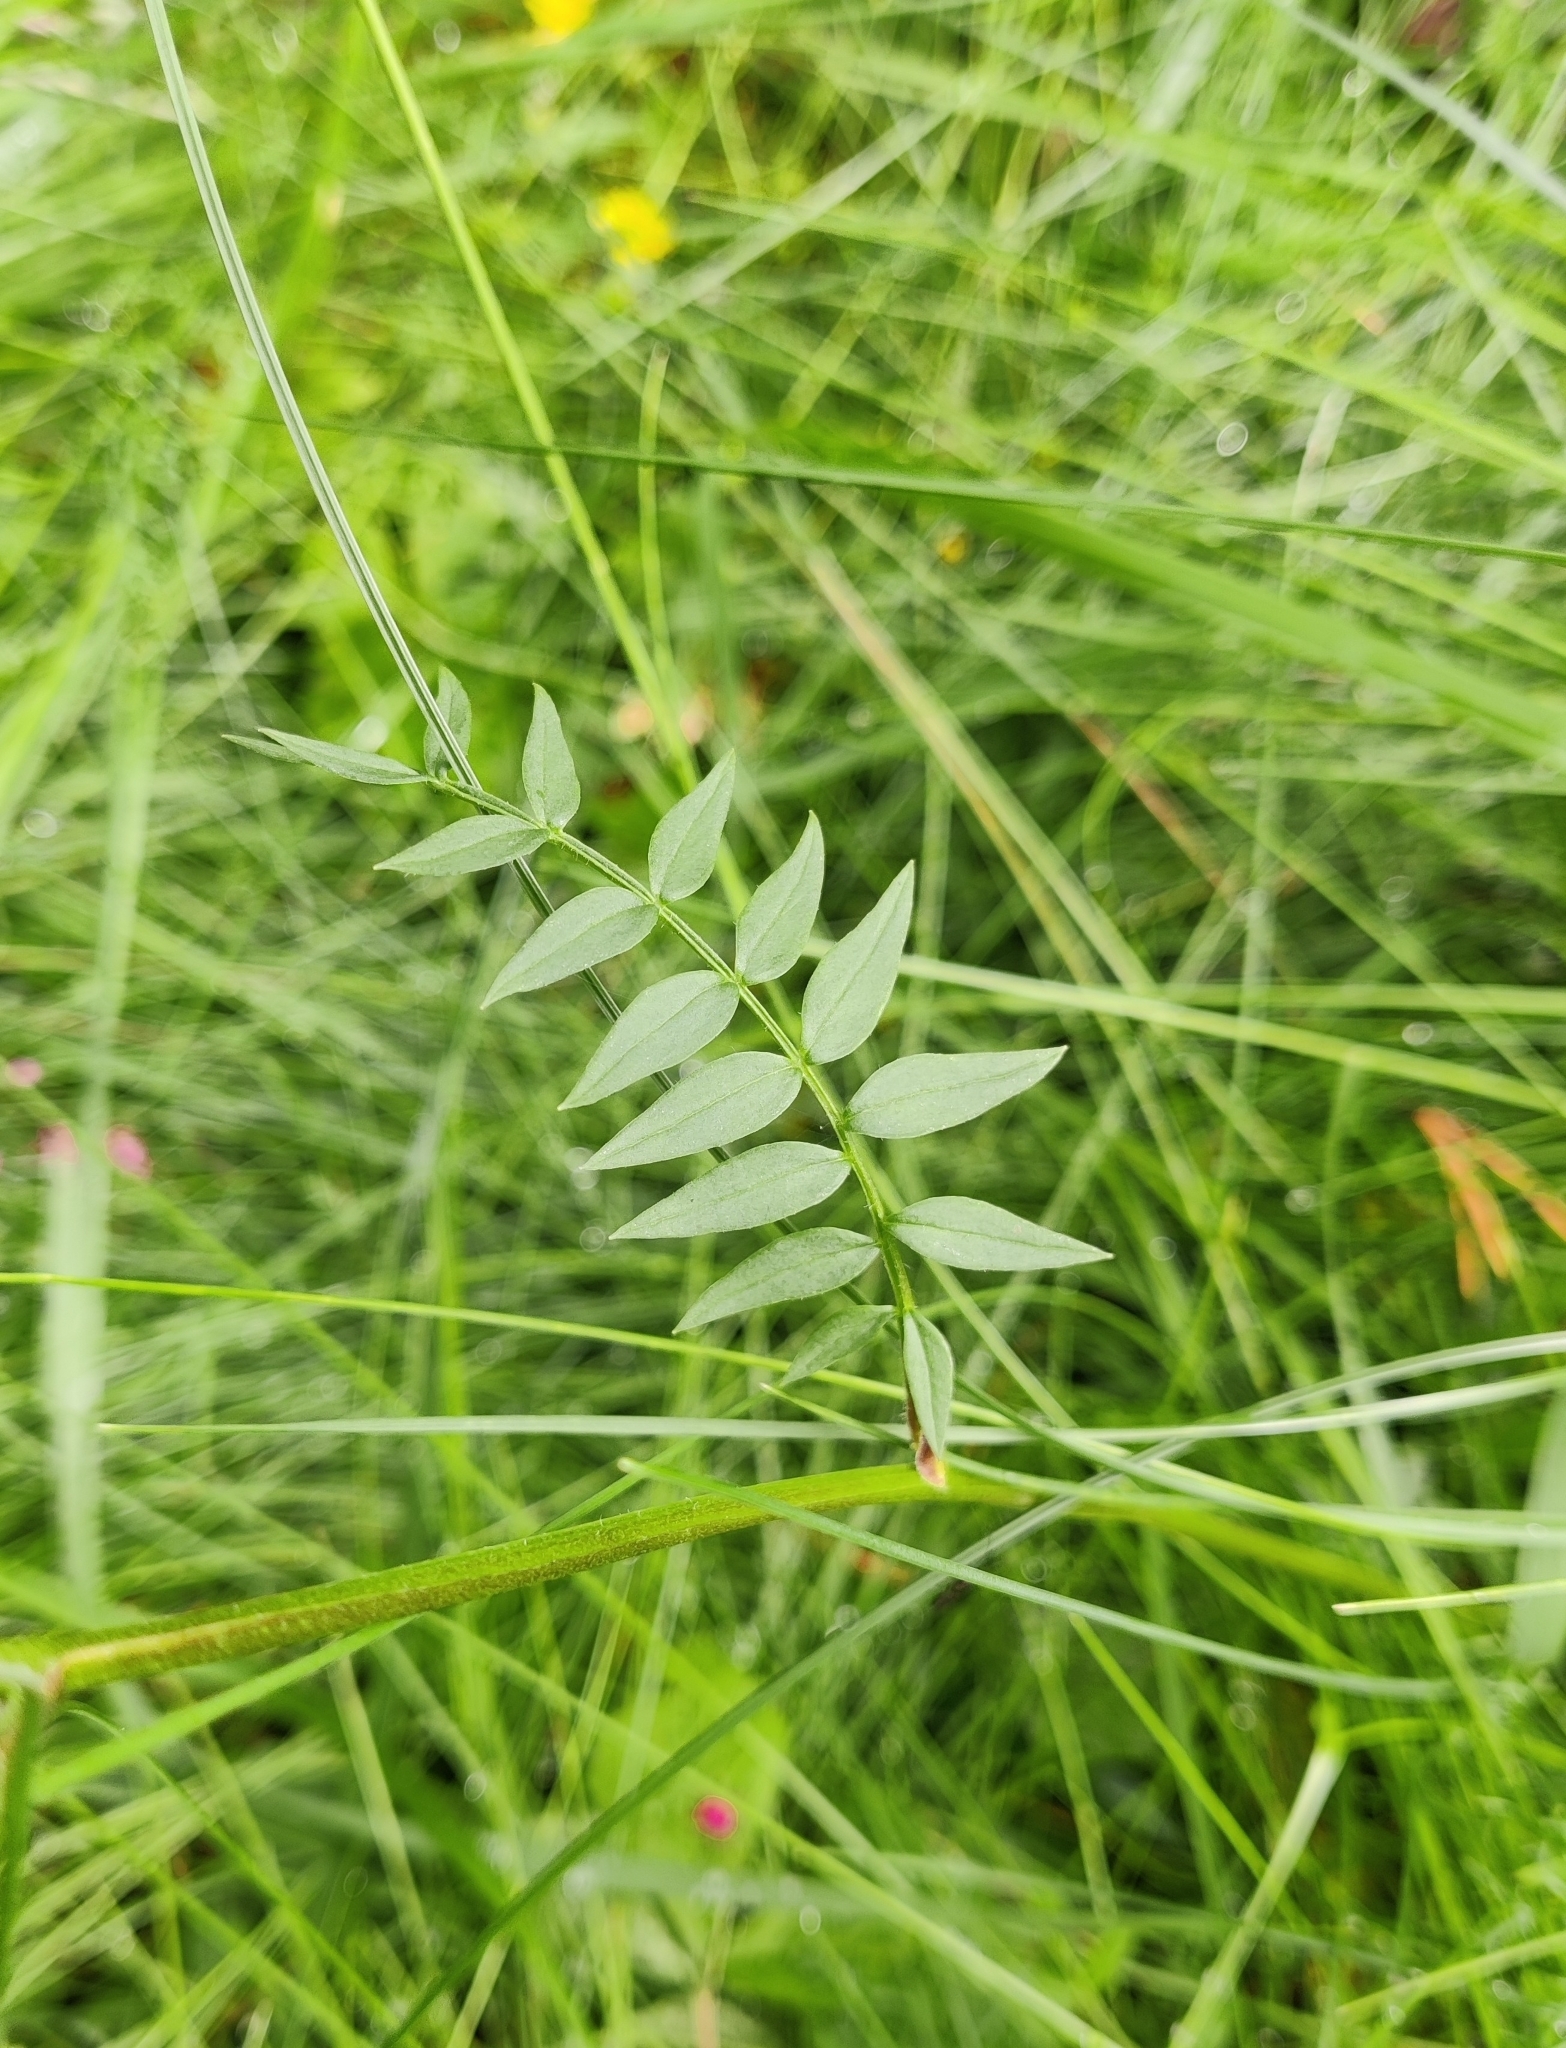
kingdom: Plantae
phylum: Tracheophyta
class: Magnoliopsida
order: Ericales
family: Polemoniaceae
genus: Polemonium
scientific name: Polemonium acutiflorum
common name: Tall jacob's-ladder
